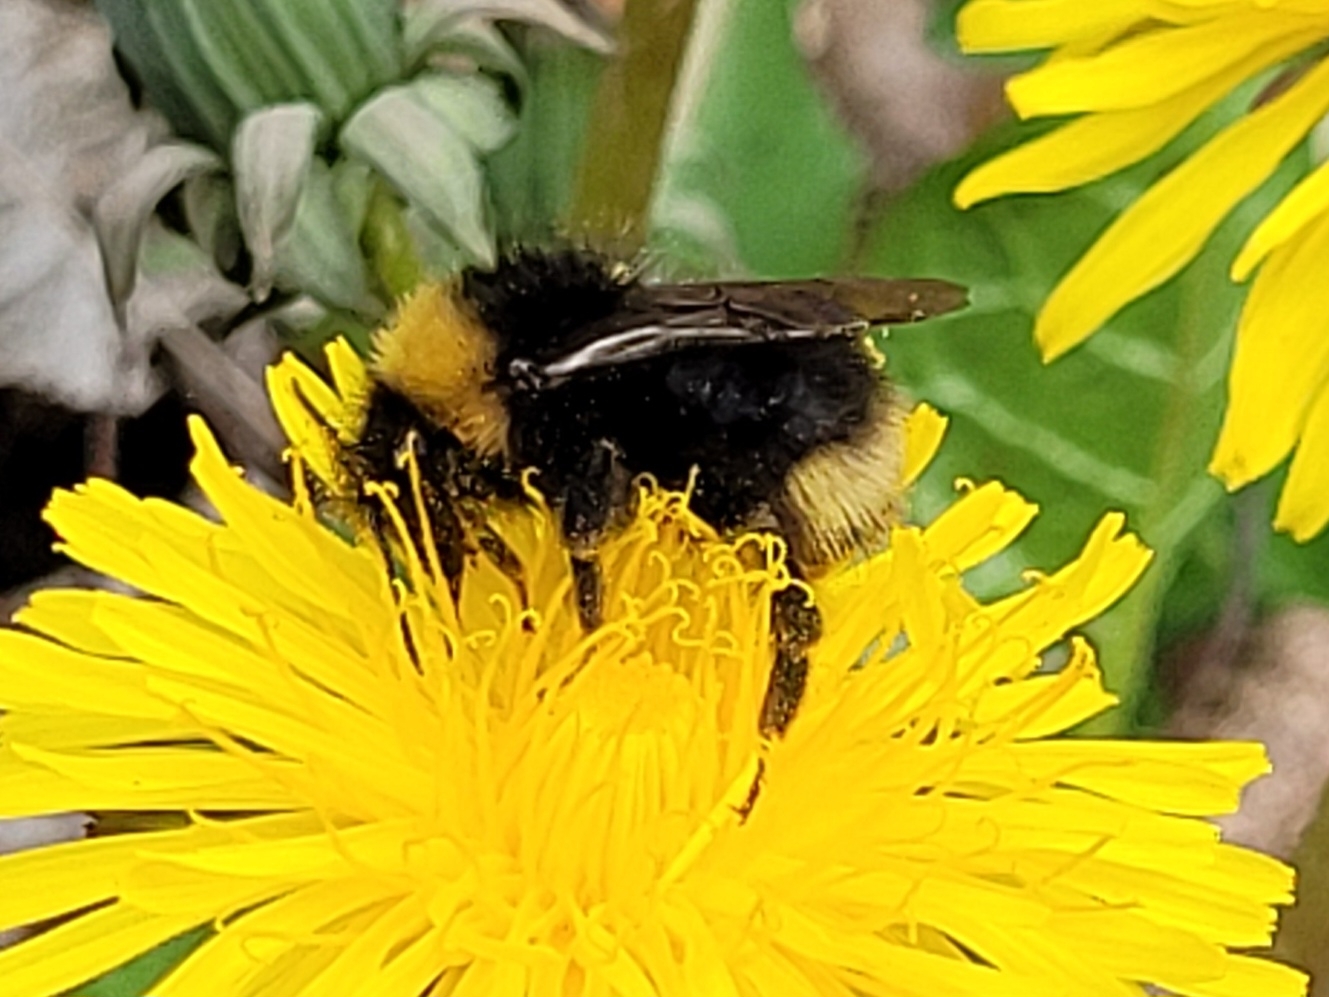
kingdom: Animalia
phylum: Arthropoda
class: Insecta
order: Hymenoptera
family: Apidae
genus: Bombus
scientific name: Bombus bohemicus
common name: Gypsy cuckoo bee
